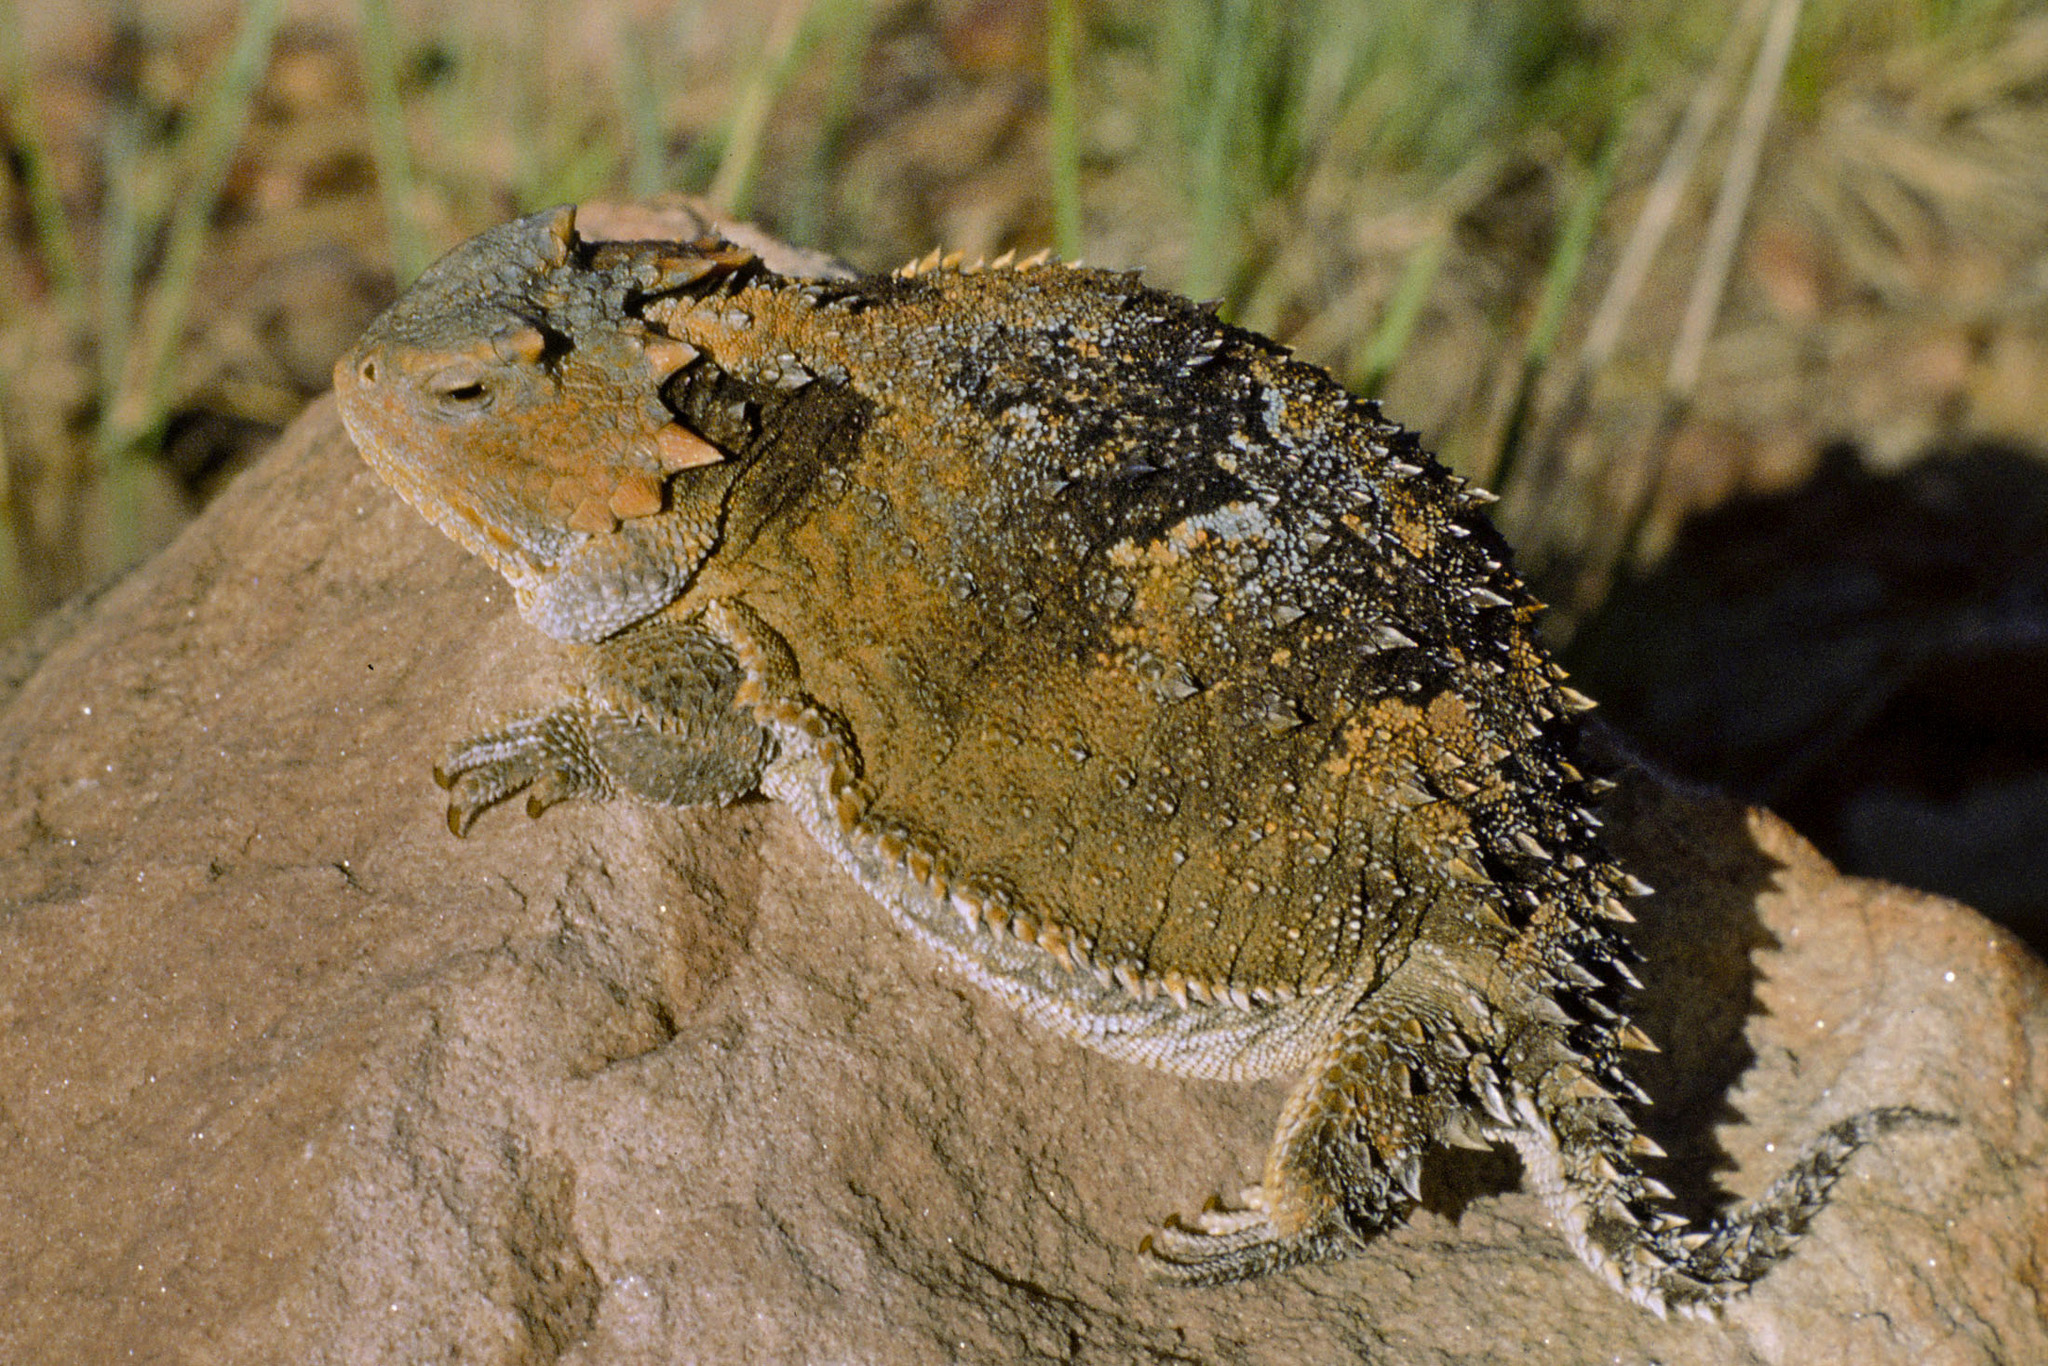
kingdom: Animalia
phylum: Chordata
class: Squamata
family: Phrynosomatidae
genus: Phrynosoma
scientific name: Phrynosoma hernandesi
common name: Greater short-horned lizard
